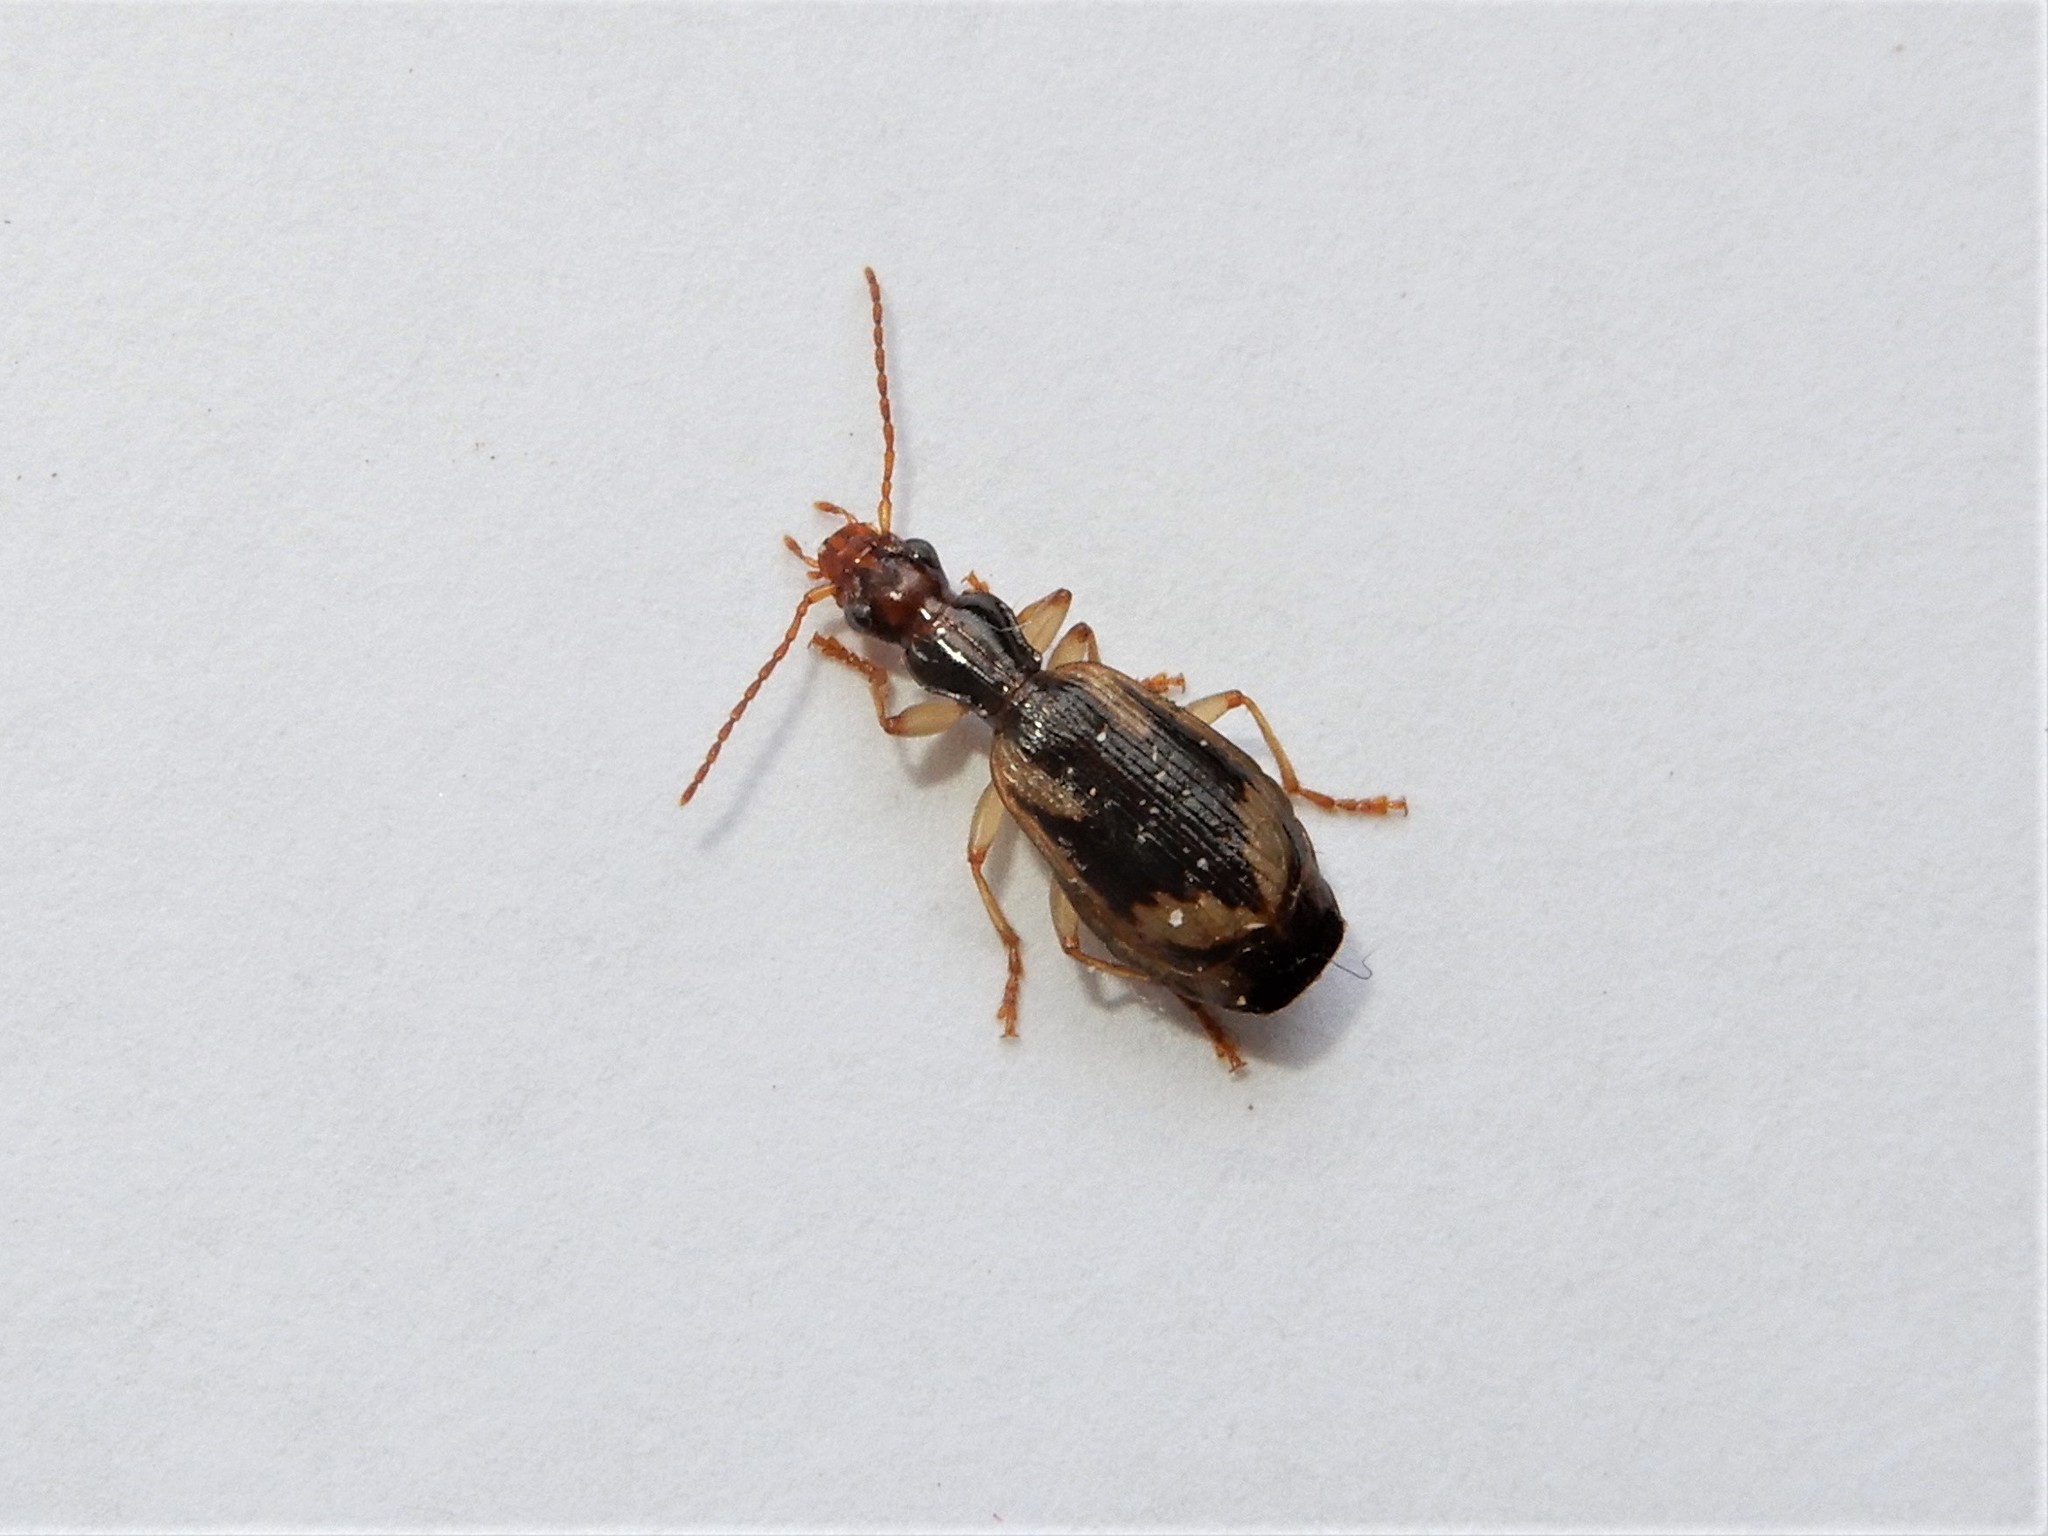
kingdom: Animalia
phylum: Arthropoda
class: Insecta
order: Coleoptera
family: Carabidae
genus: Demetrida
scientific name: Demetrida nasuta
